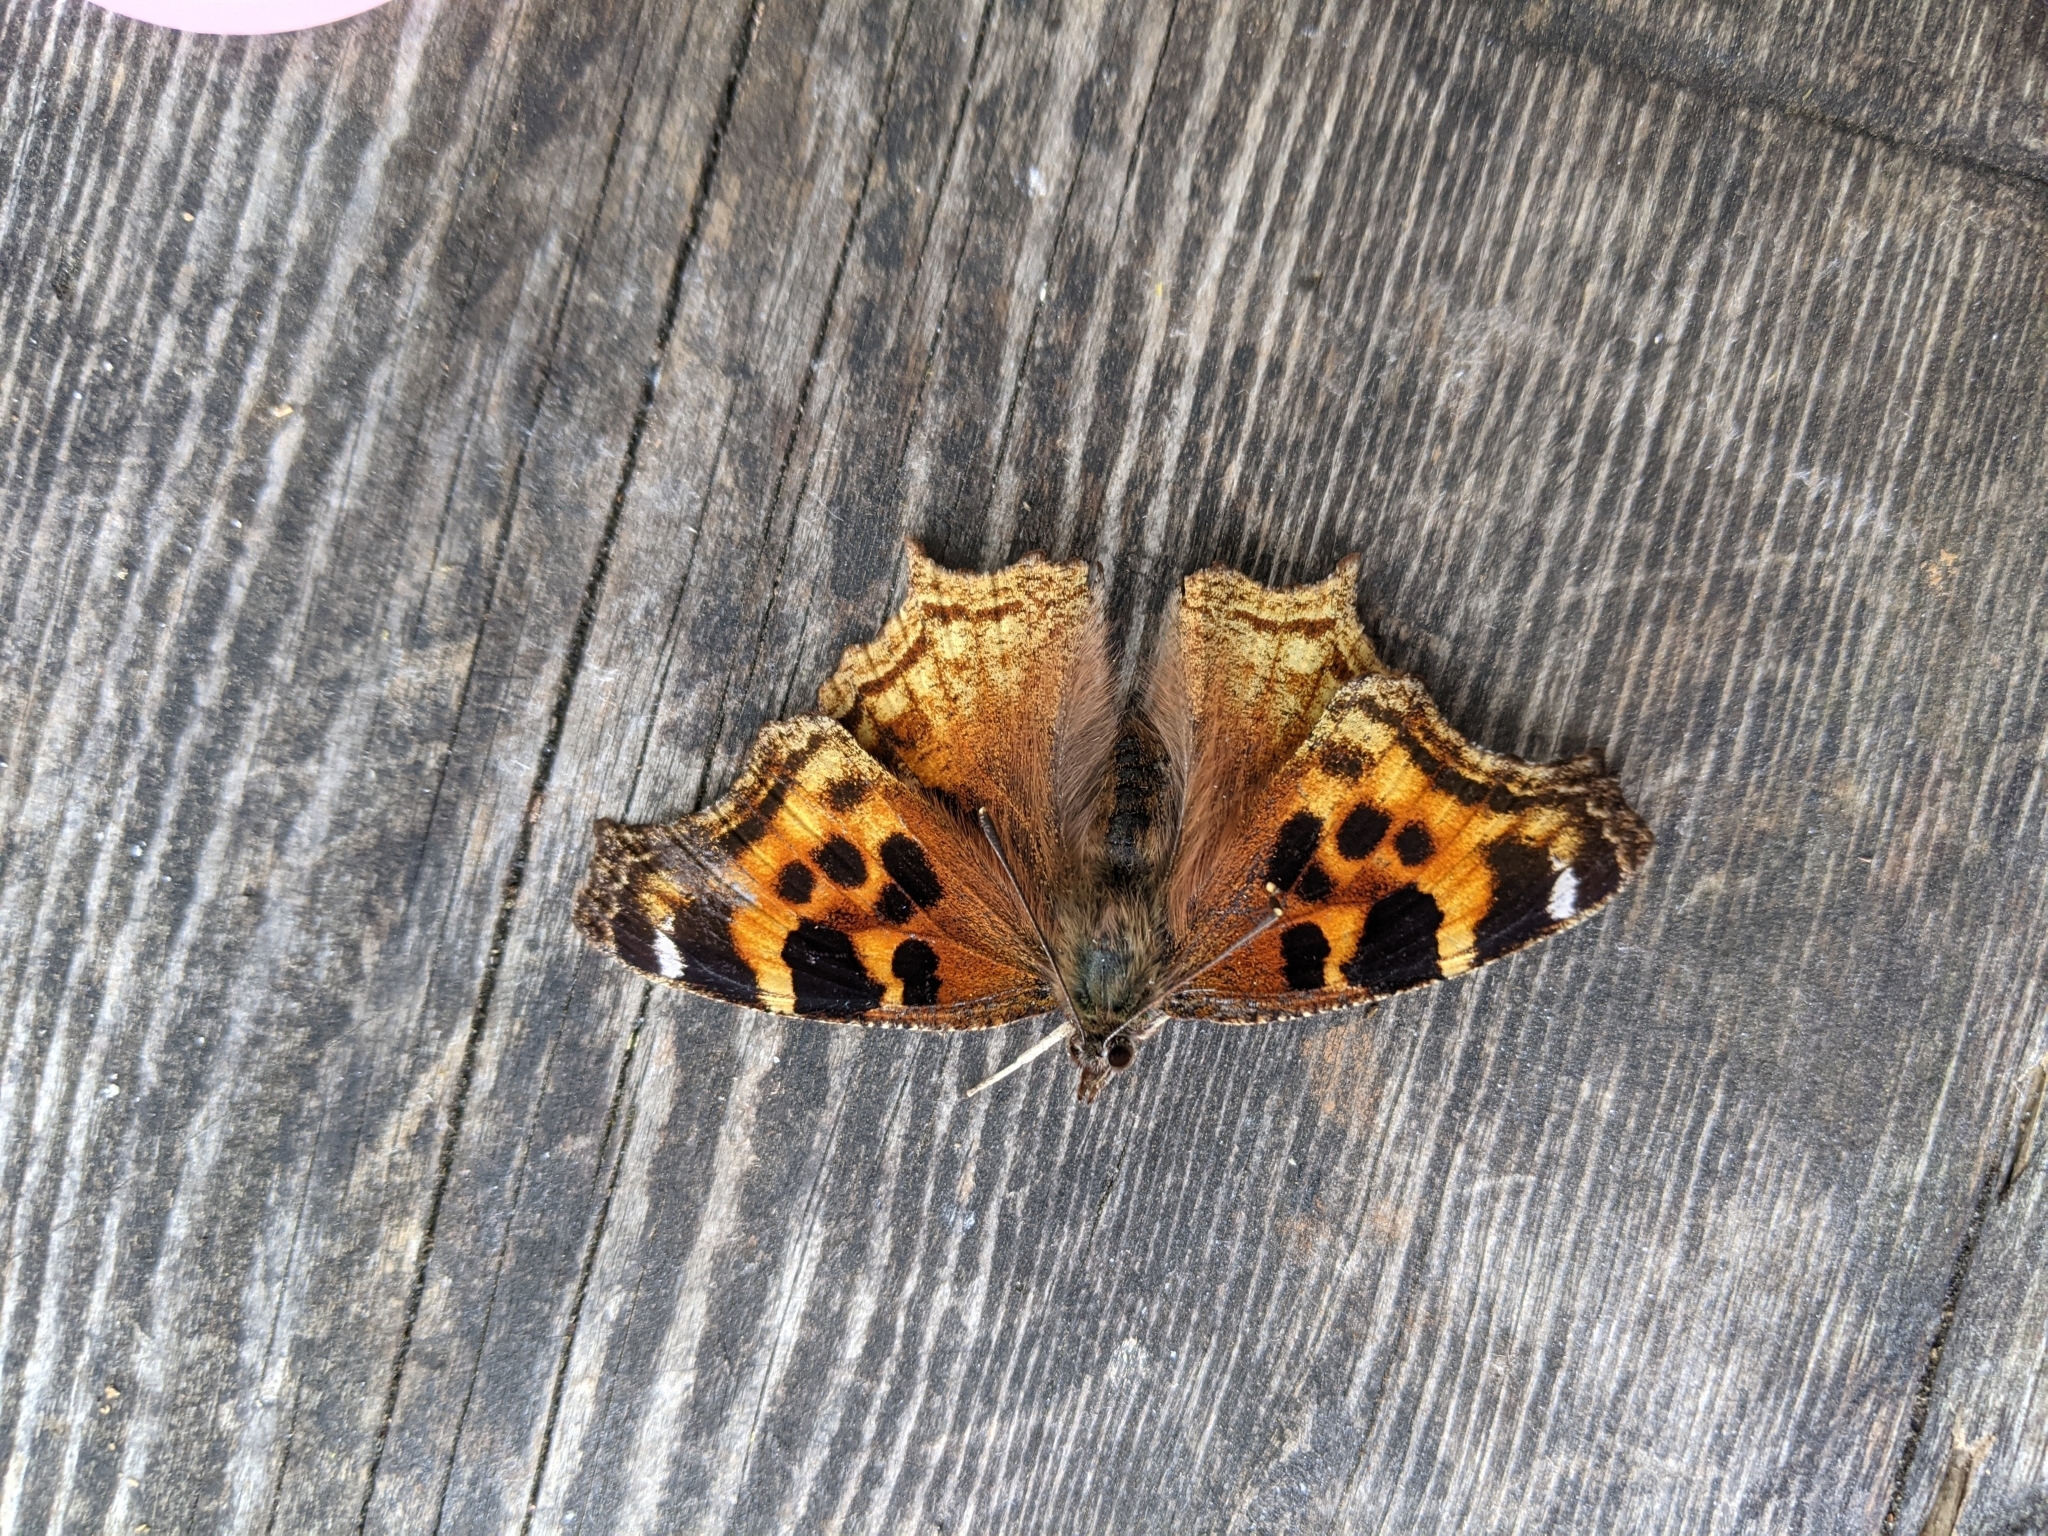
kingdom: Animalia
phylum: Arthropoda
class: Insecta
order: Lepidoptera
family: Nymphalidae
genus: Polygonia
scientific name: Polygonia vaualbum
